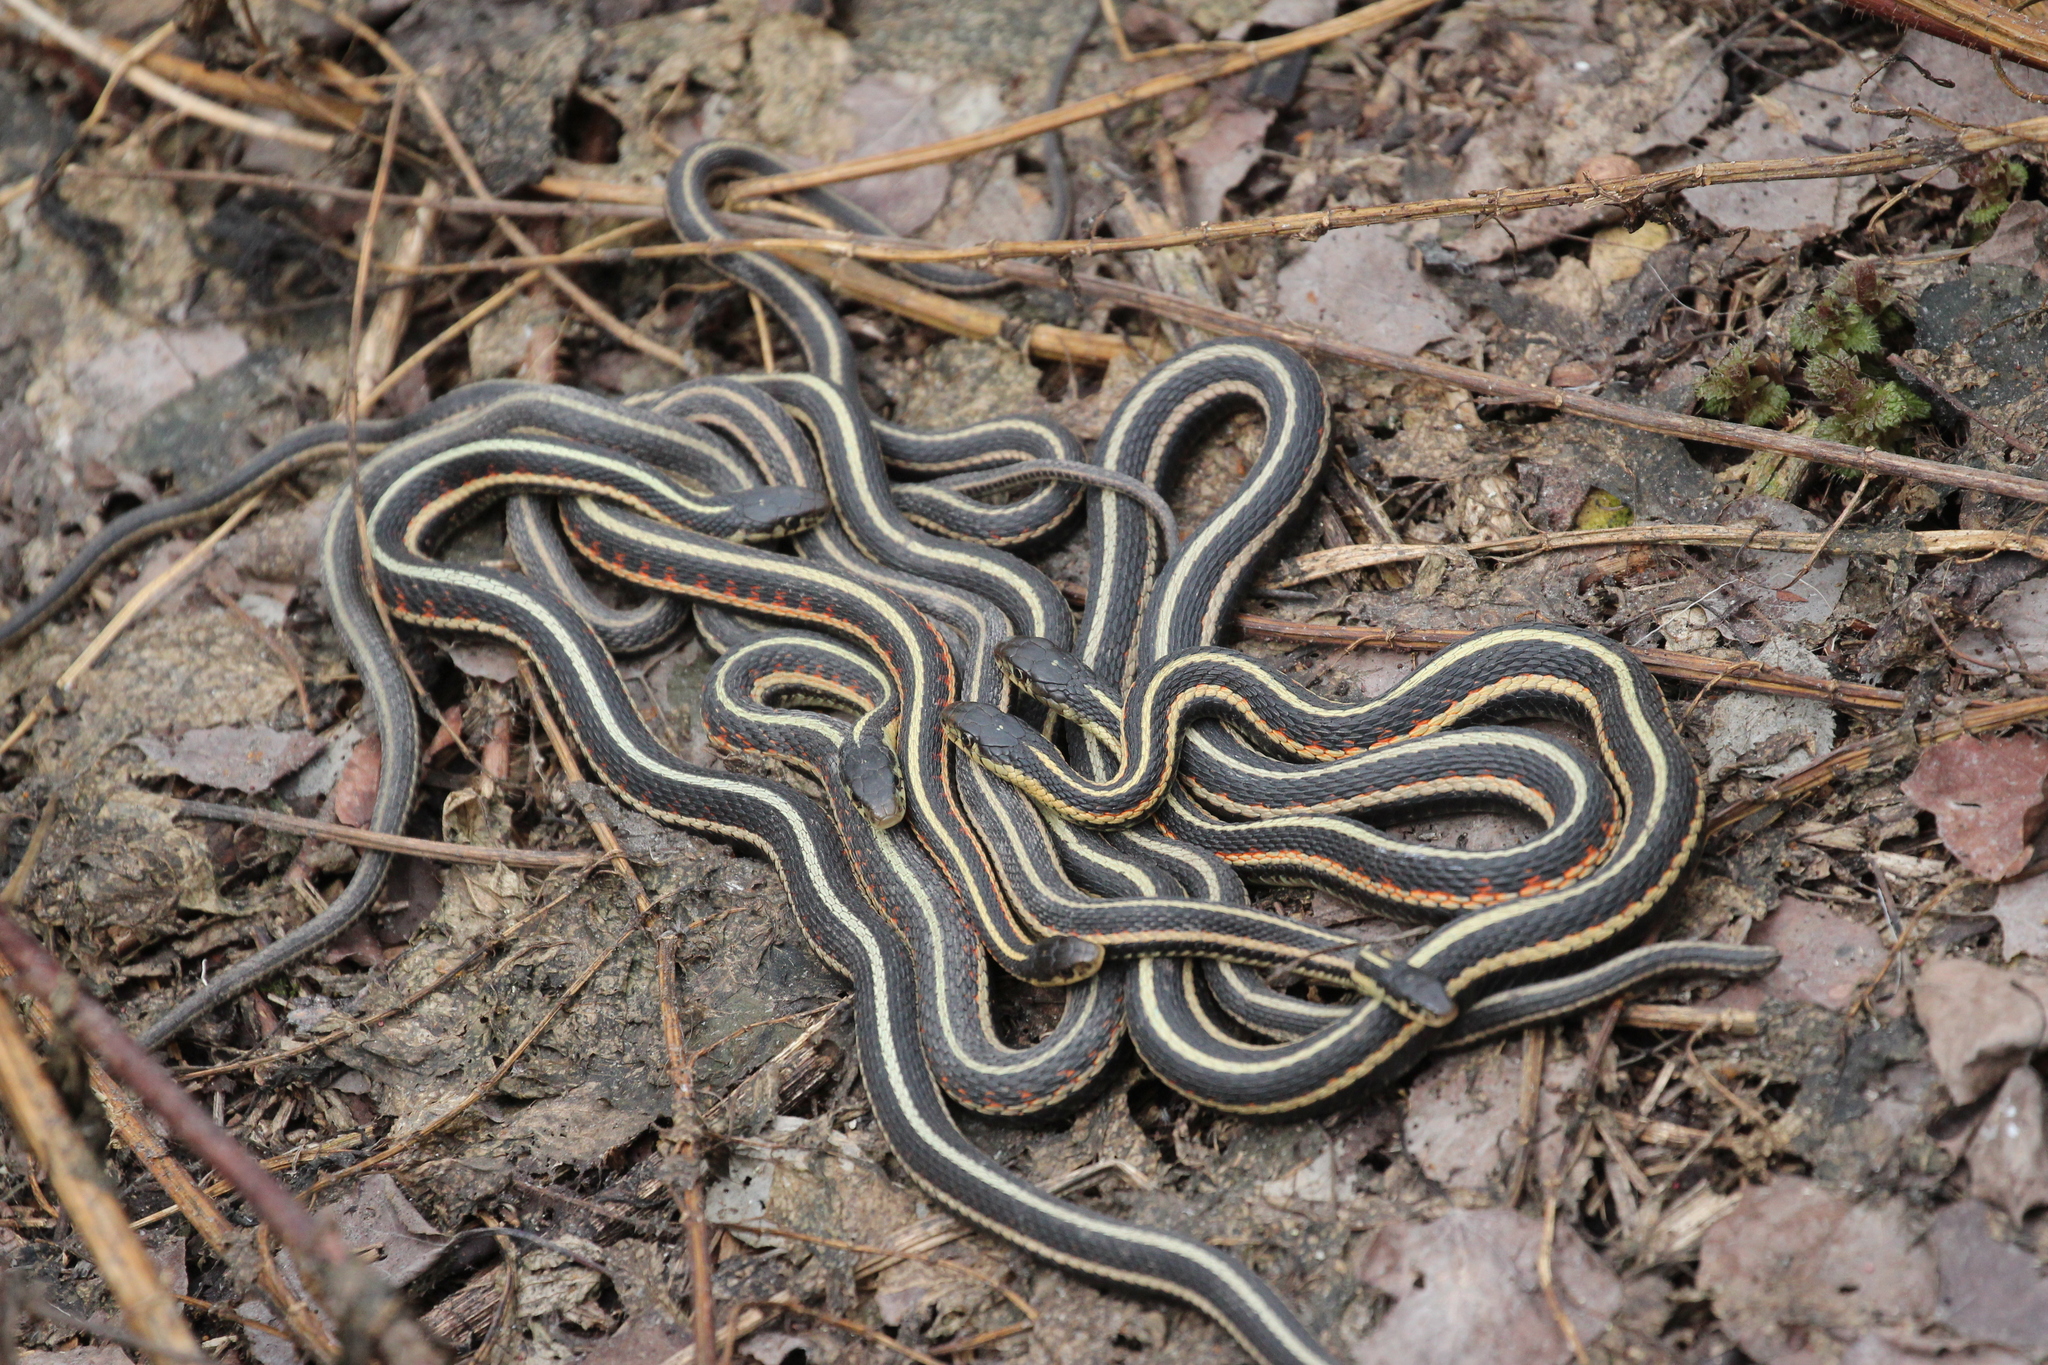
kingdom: Animalia
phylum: Chordata
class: Squamata
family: Colubridae
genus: Thamnophis
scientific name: Thamnophis sirtalis
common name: Common garter snake
